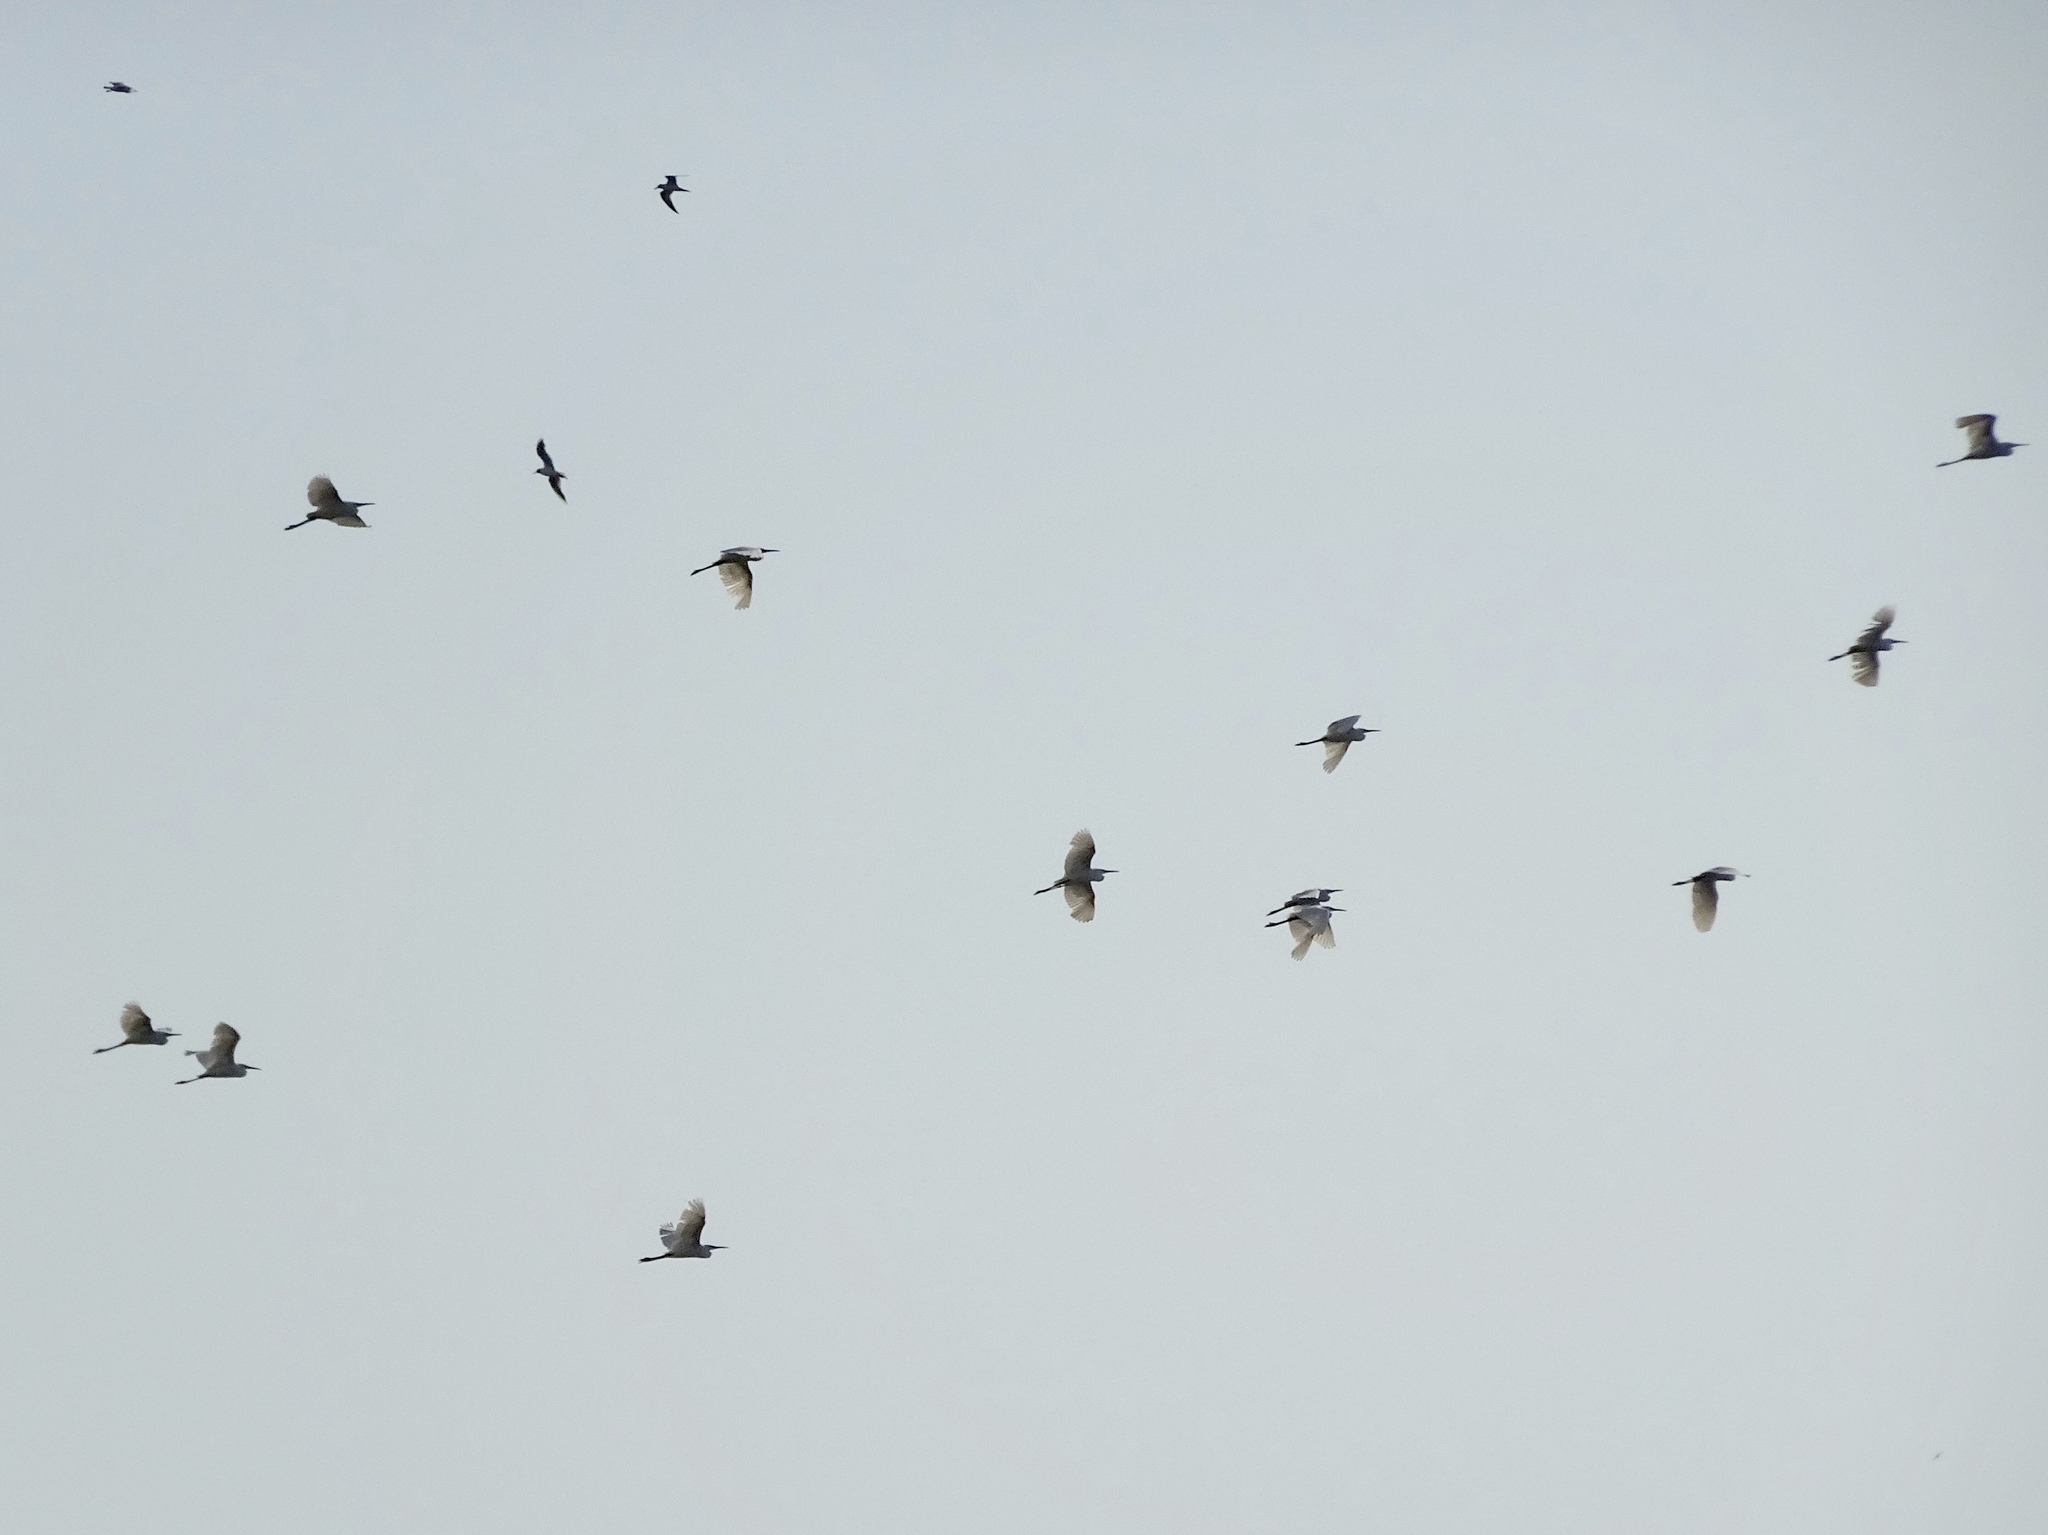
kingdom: Animalia
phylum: Chordata
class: Aves
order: Pelecaniformes
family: Ardeidae
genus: Egretta
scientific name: Egretta garzetta
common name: Little egret
